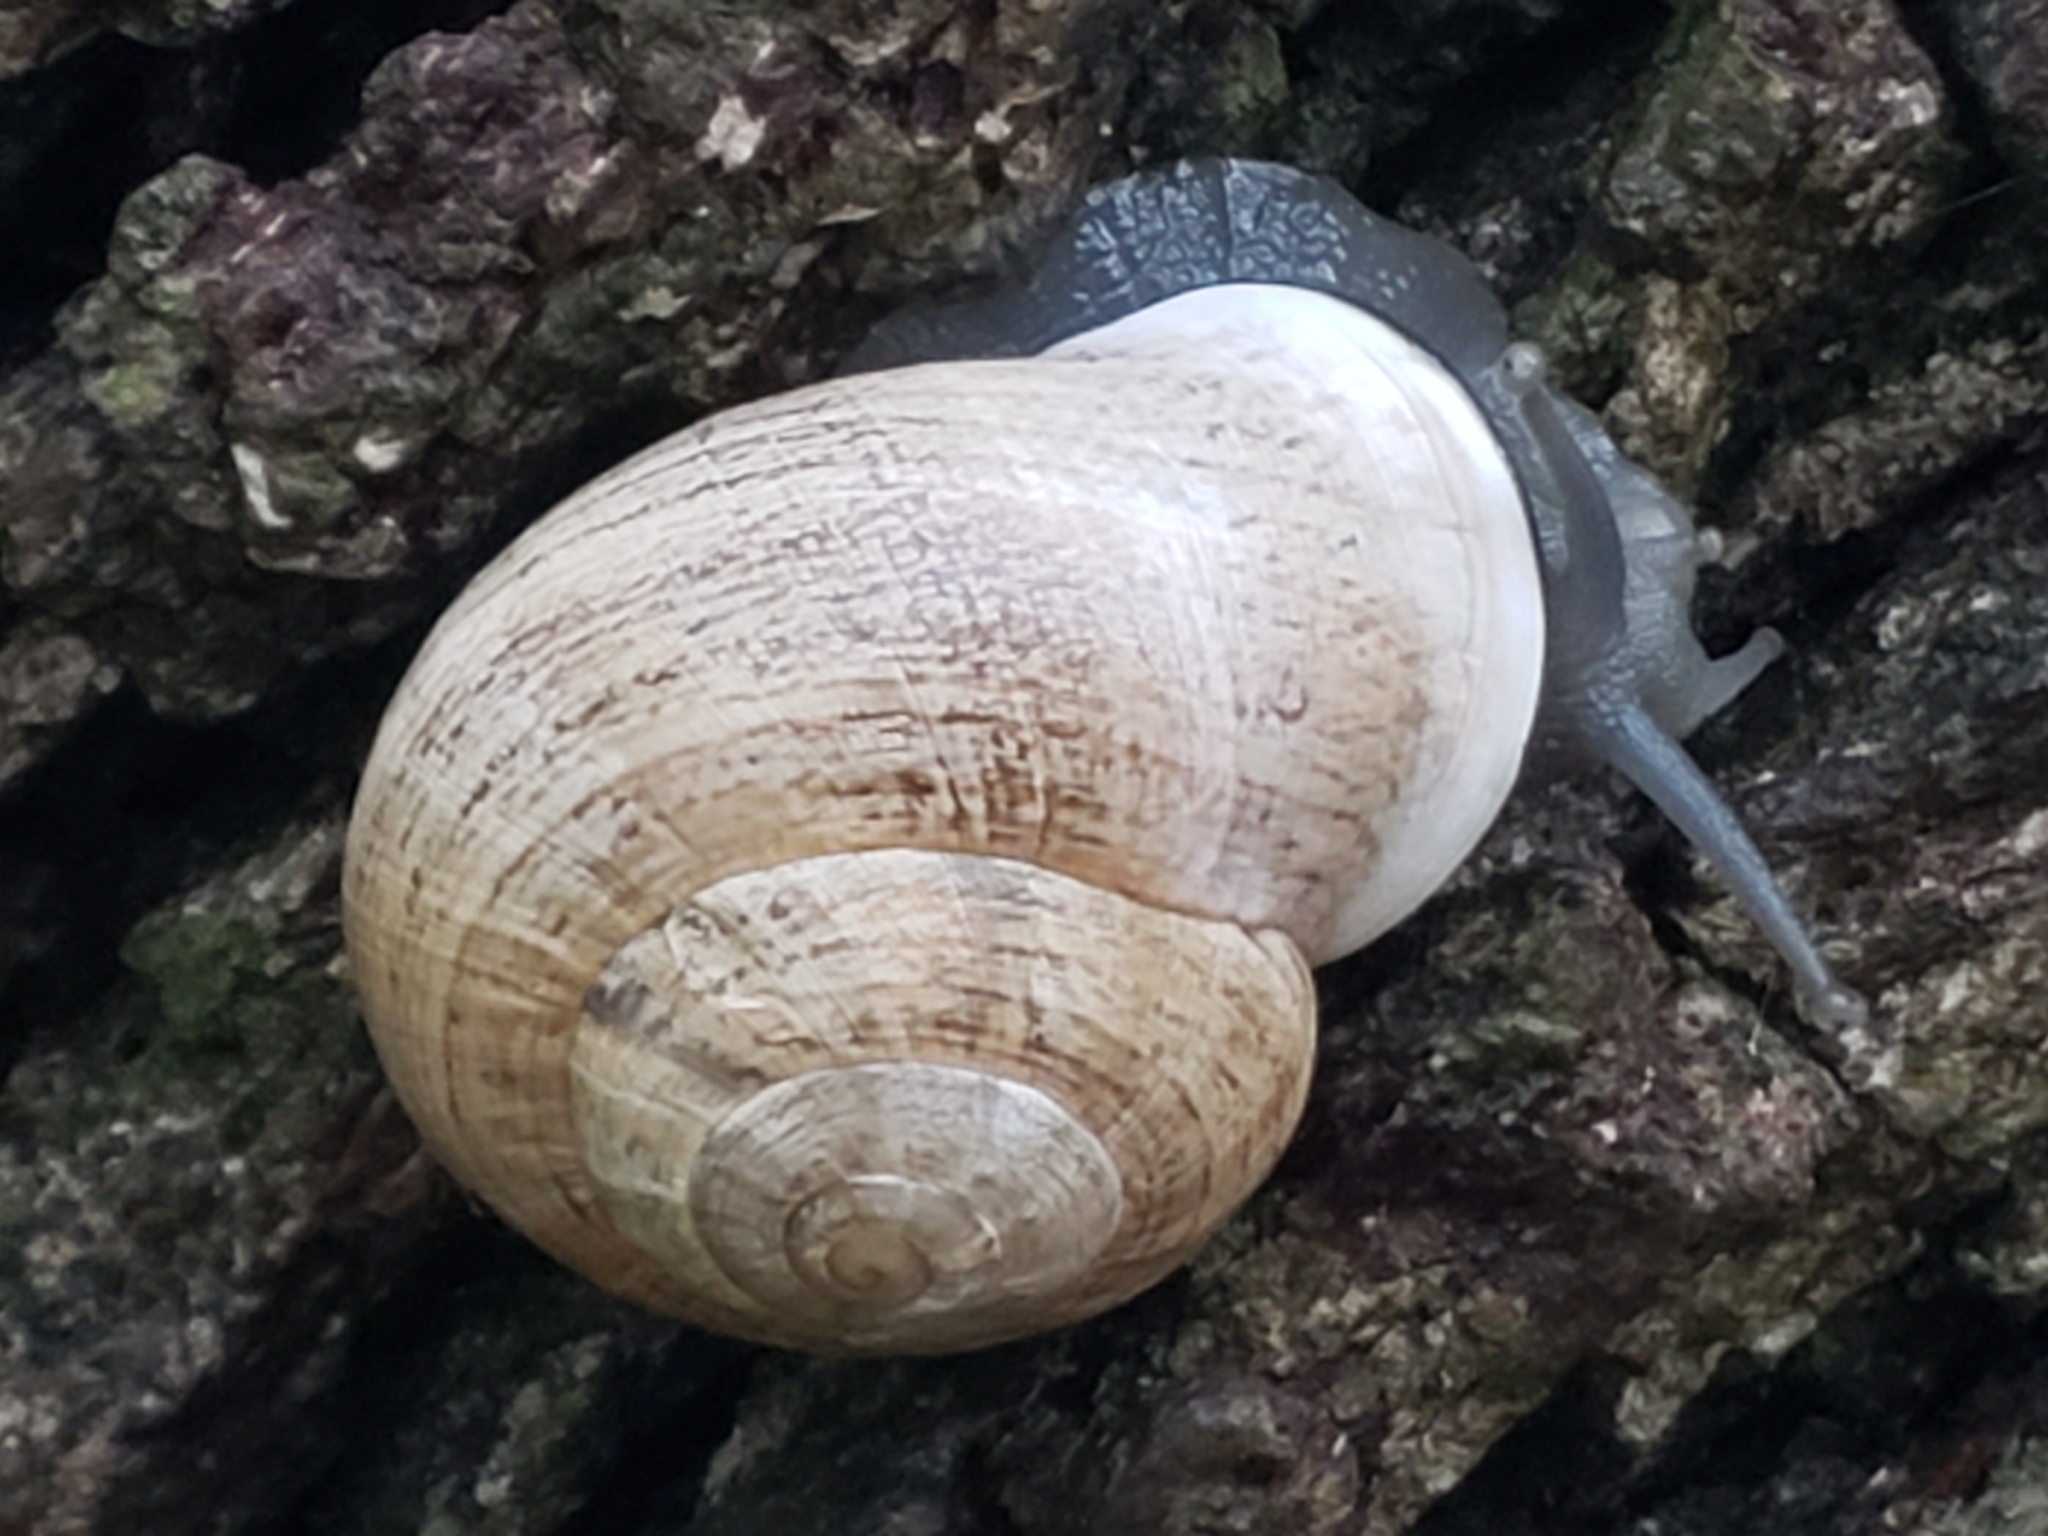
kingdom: Animalia
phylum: Mollusca
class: Gastropoda
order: Stylommatophora
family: Helicidae
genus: Otala
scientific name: Otala lactea
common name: Milk snail
